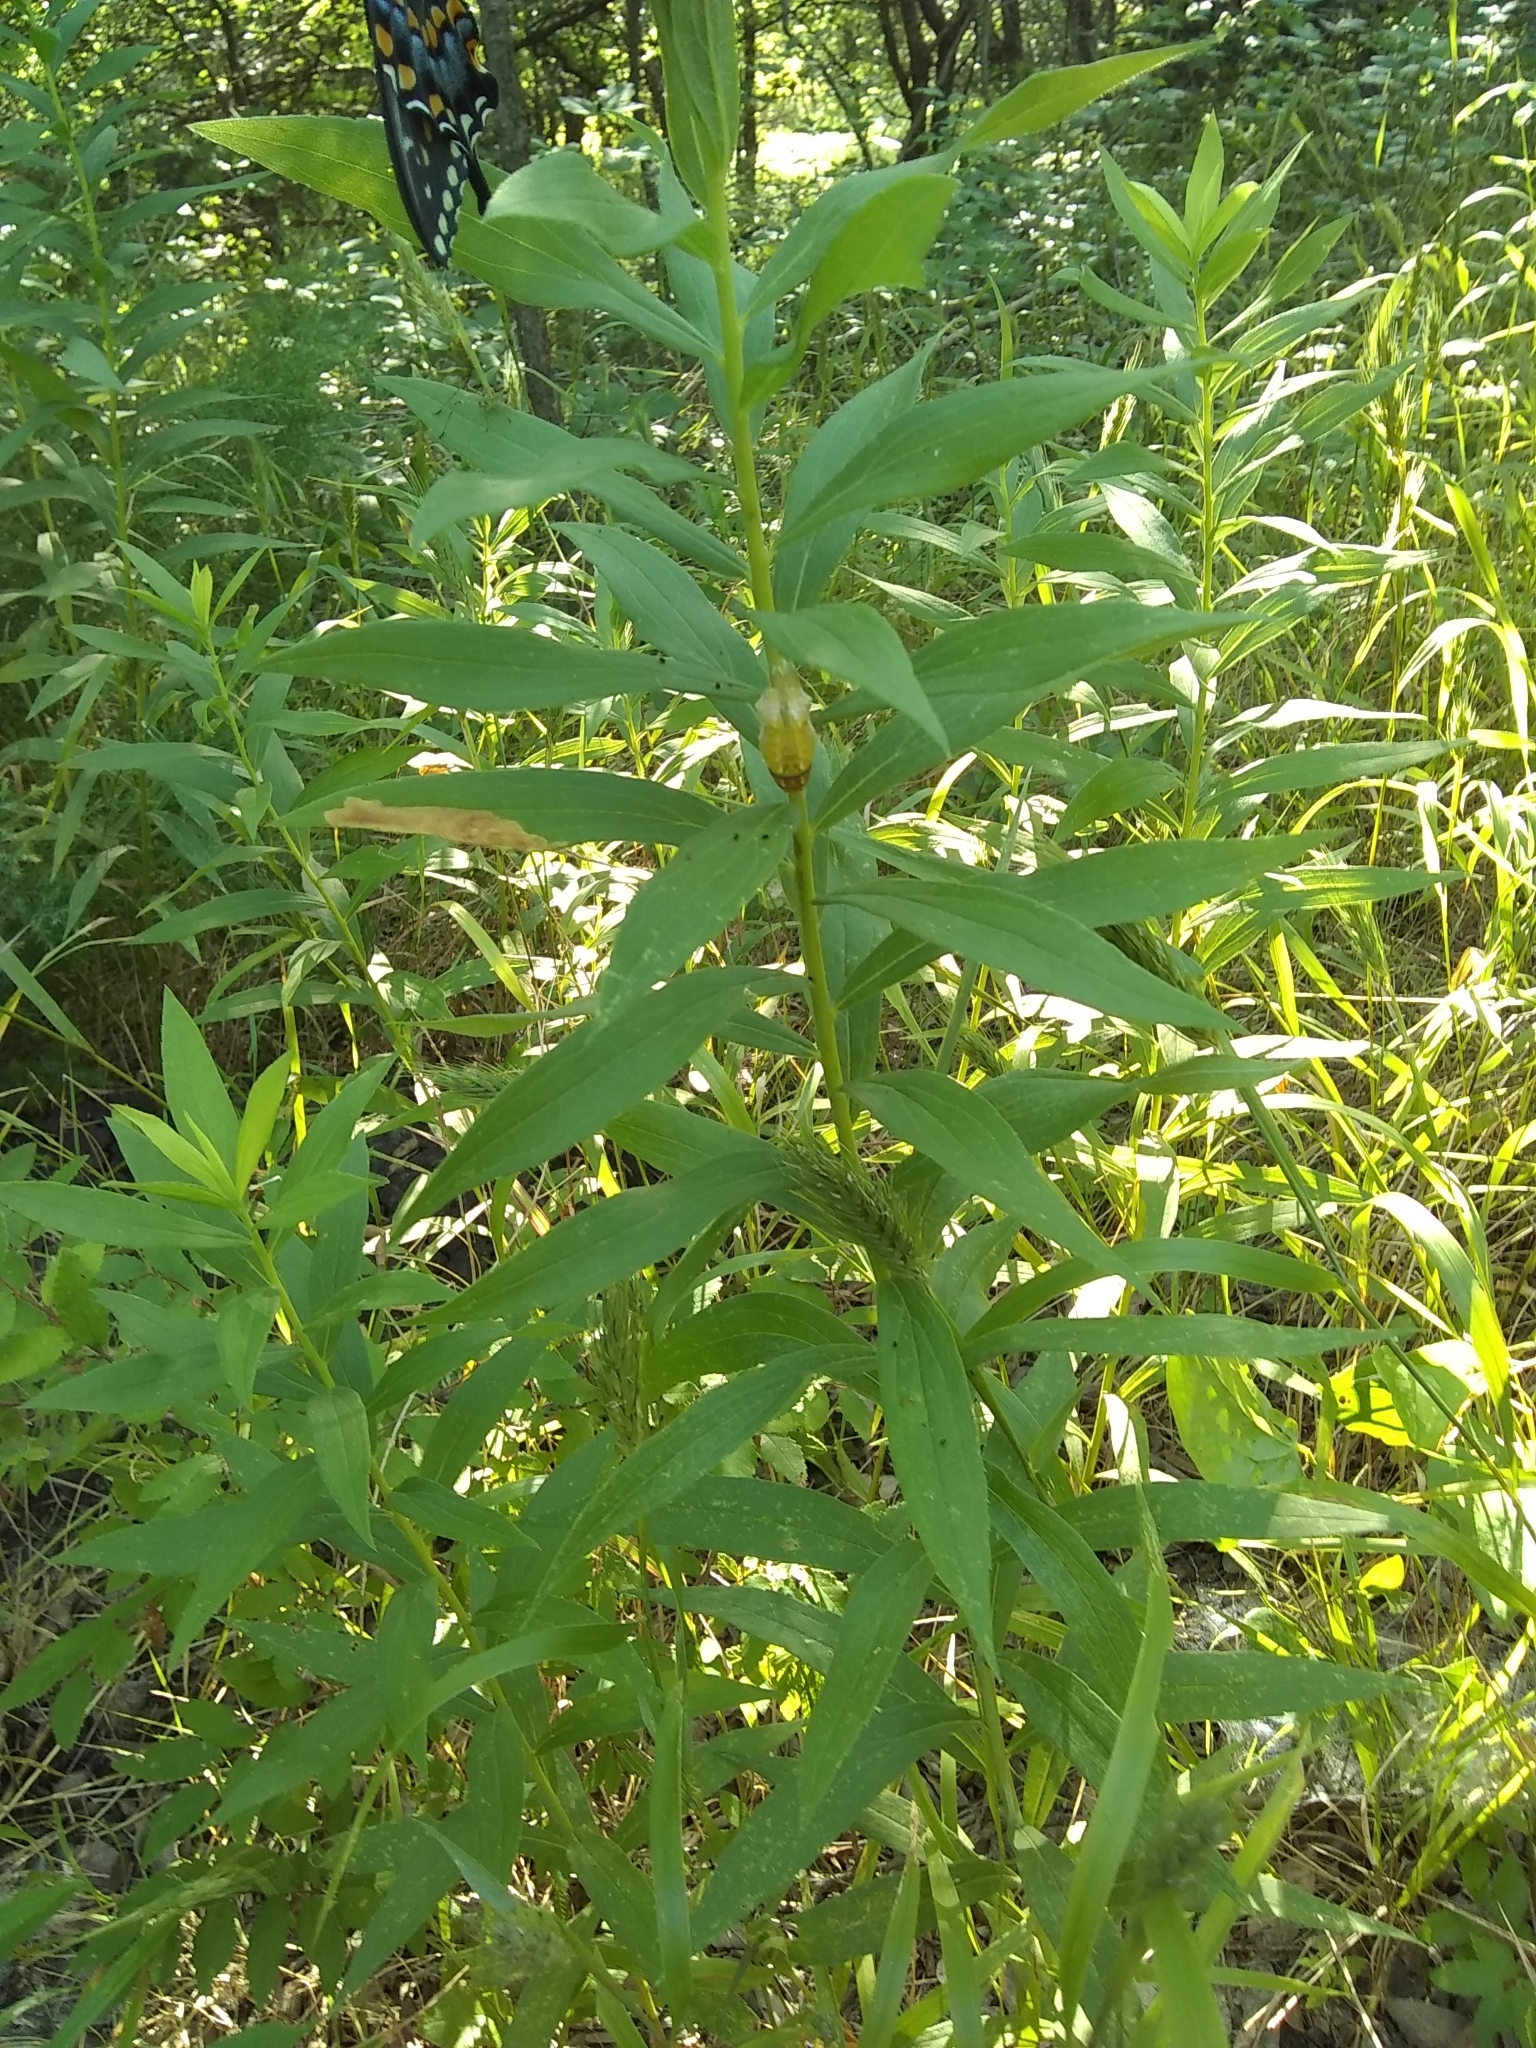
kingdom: Animalia
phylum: Arthropoda
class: Insecta
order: Lepidoptera
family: Papilionidae
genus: Papilio
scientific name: Papilio polyxenes
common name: Black swallowtail
